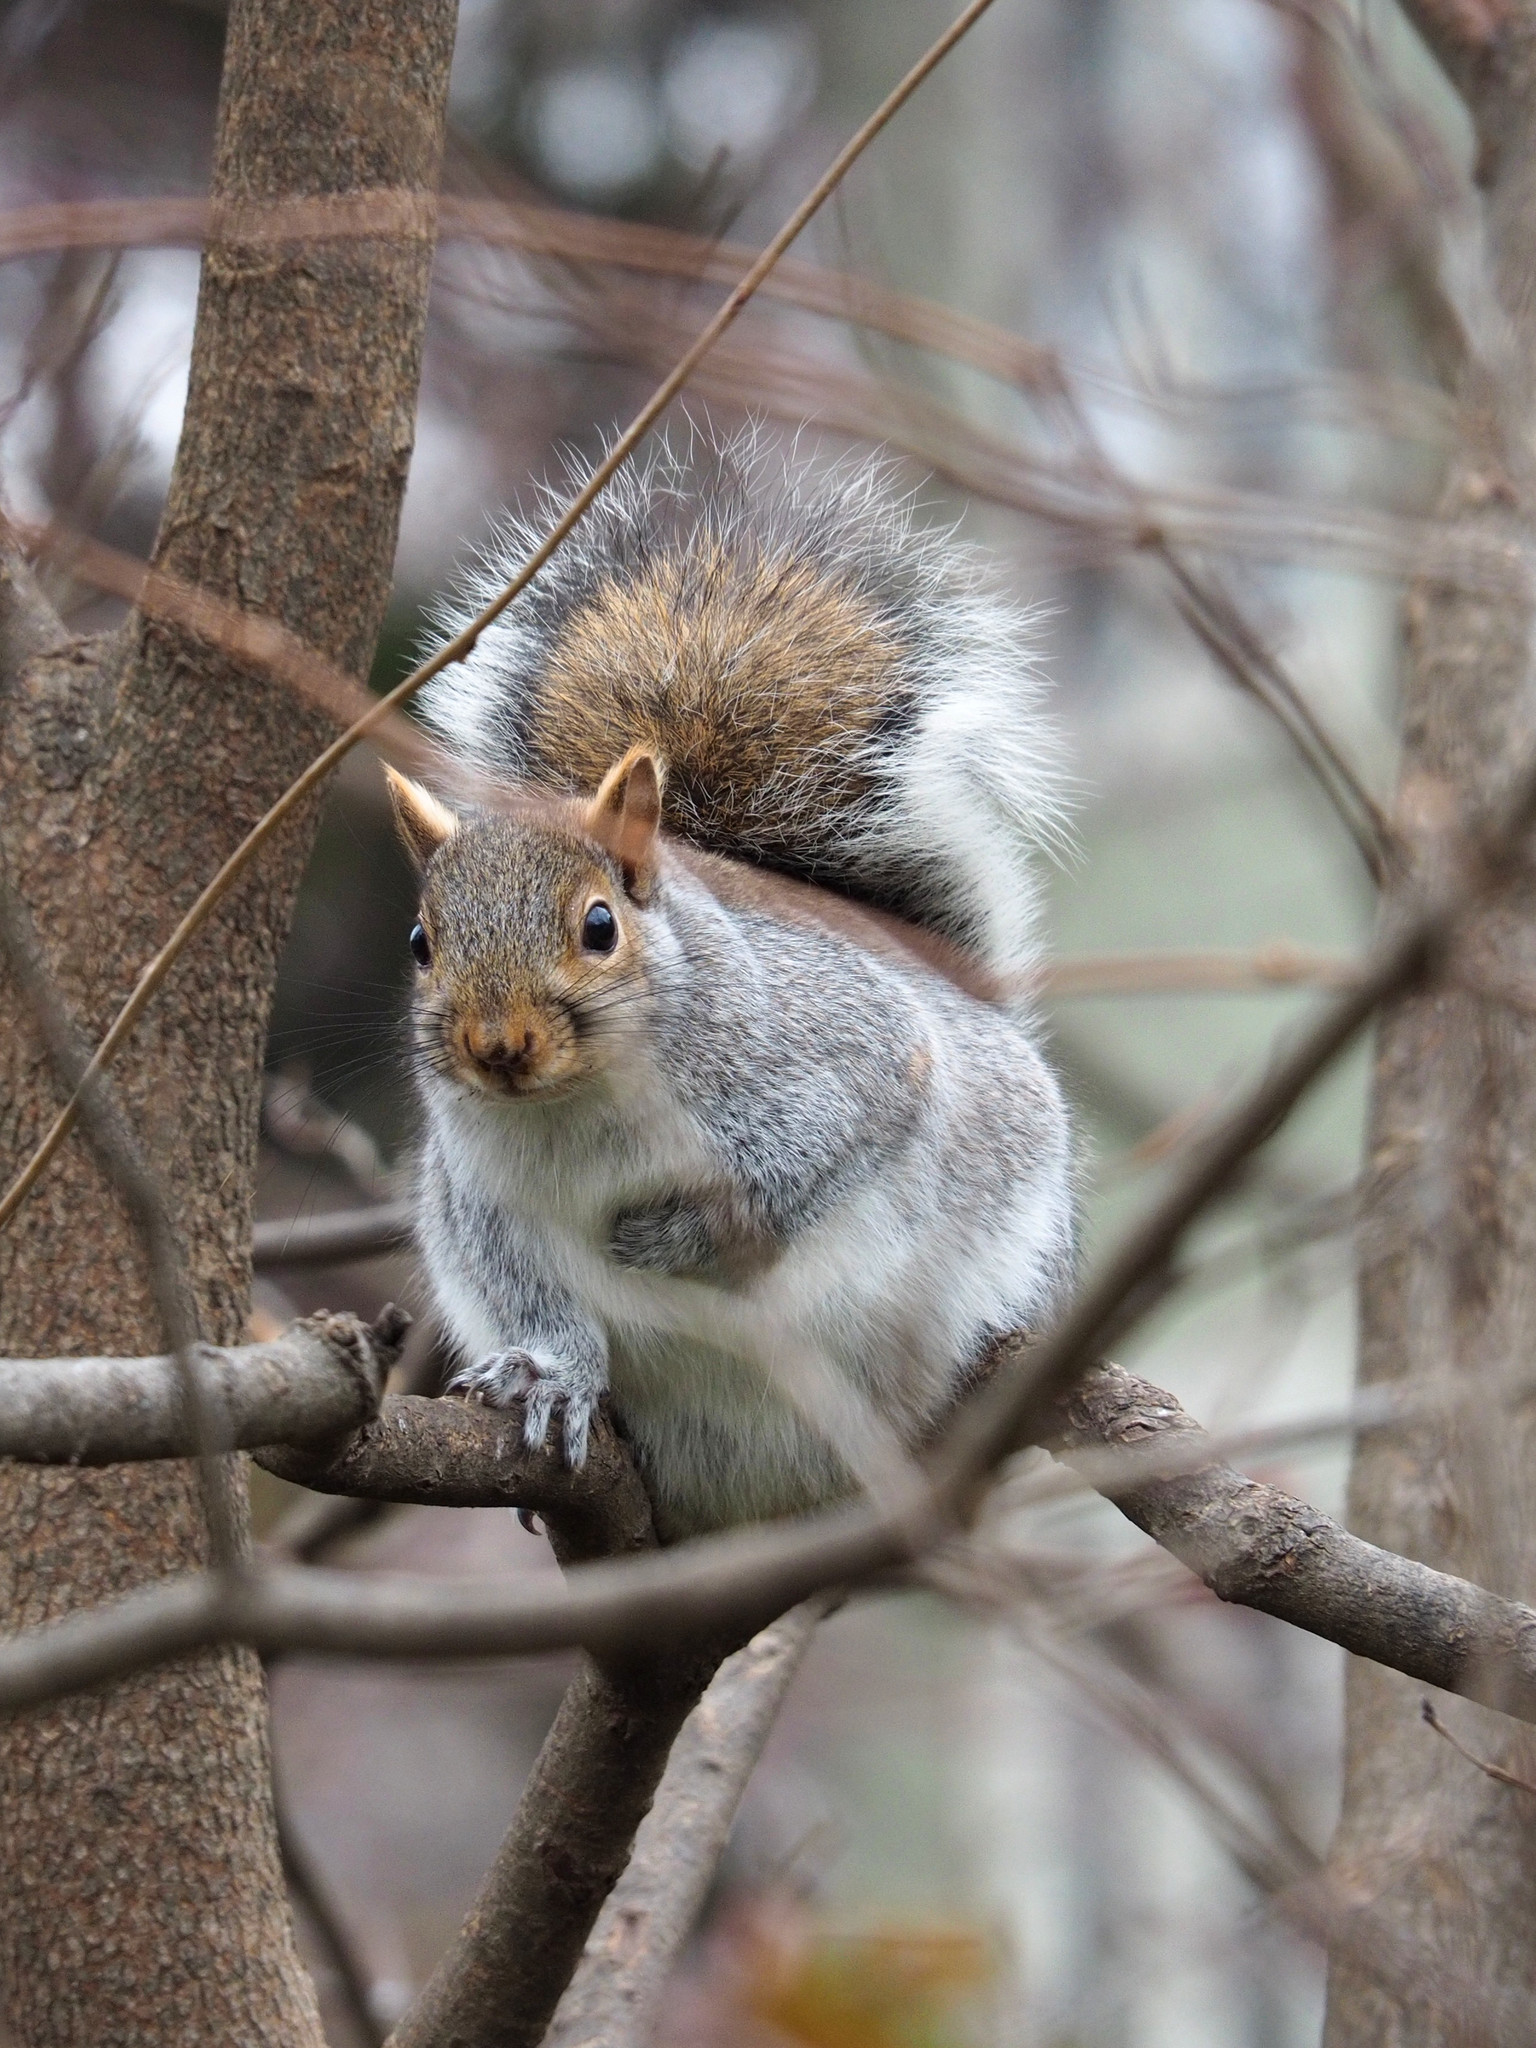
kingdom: Animalia
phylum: Chordata
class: Mammalia
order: Rodentia
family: Sciuridae
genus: Sciurus
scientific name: Sciurus carolinensis
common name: Eastern gray squirrel
